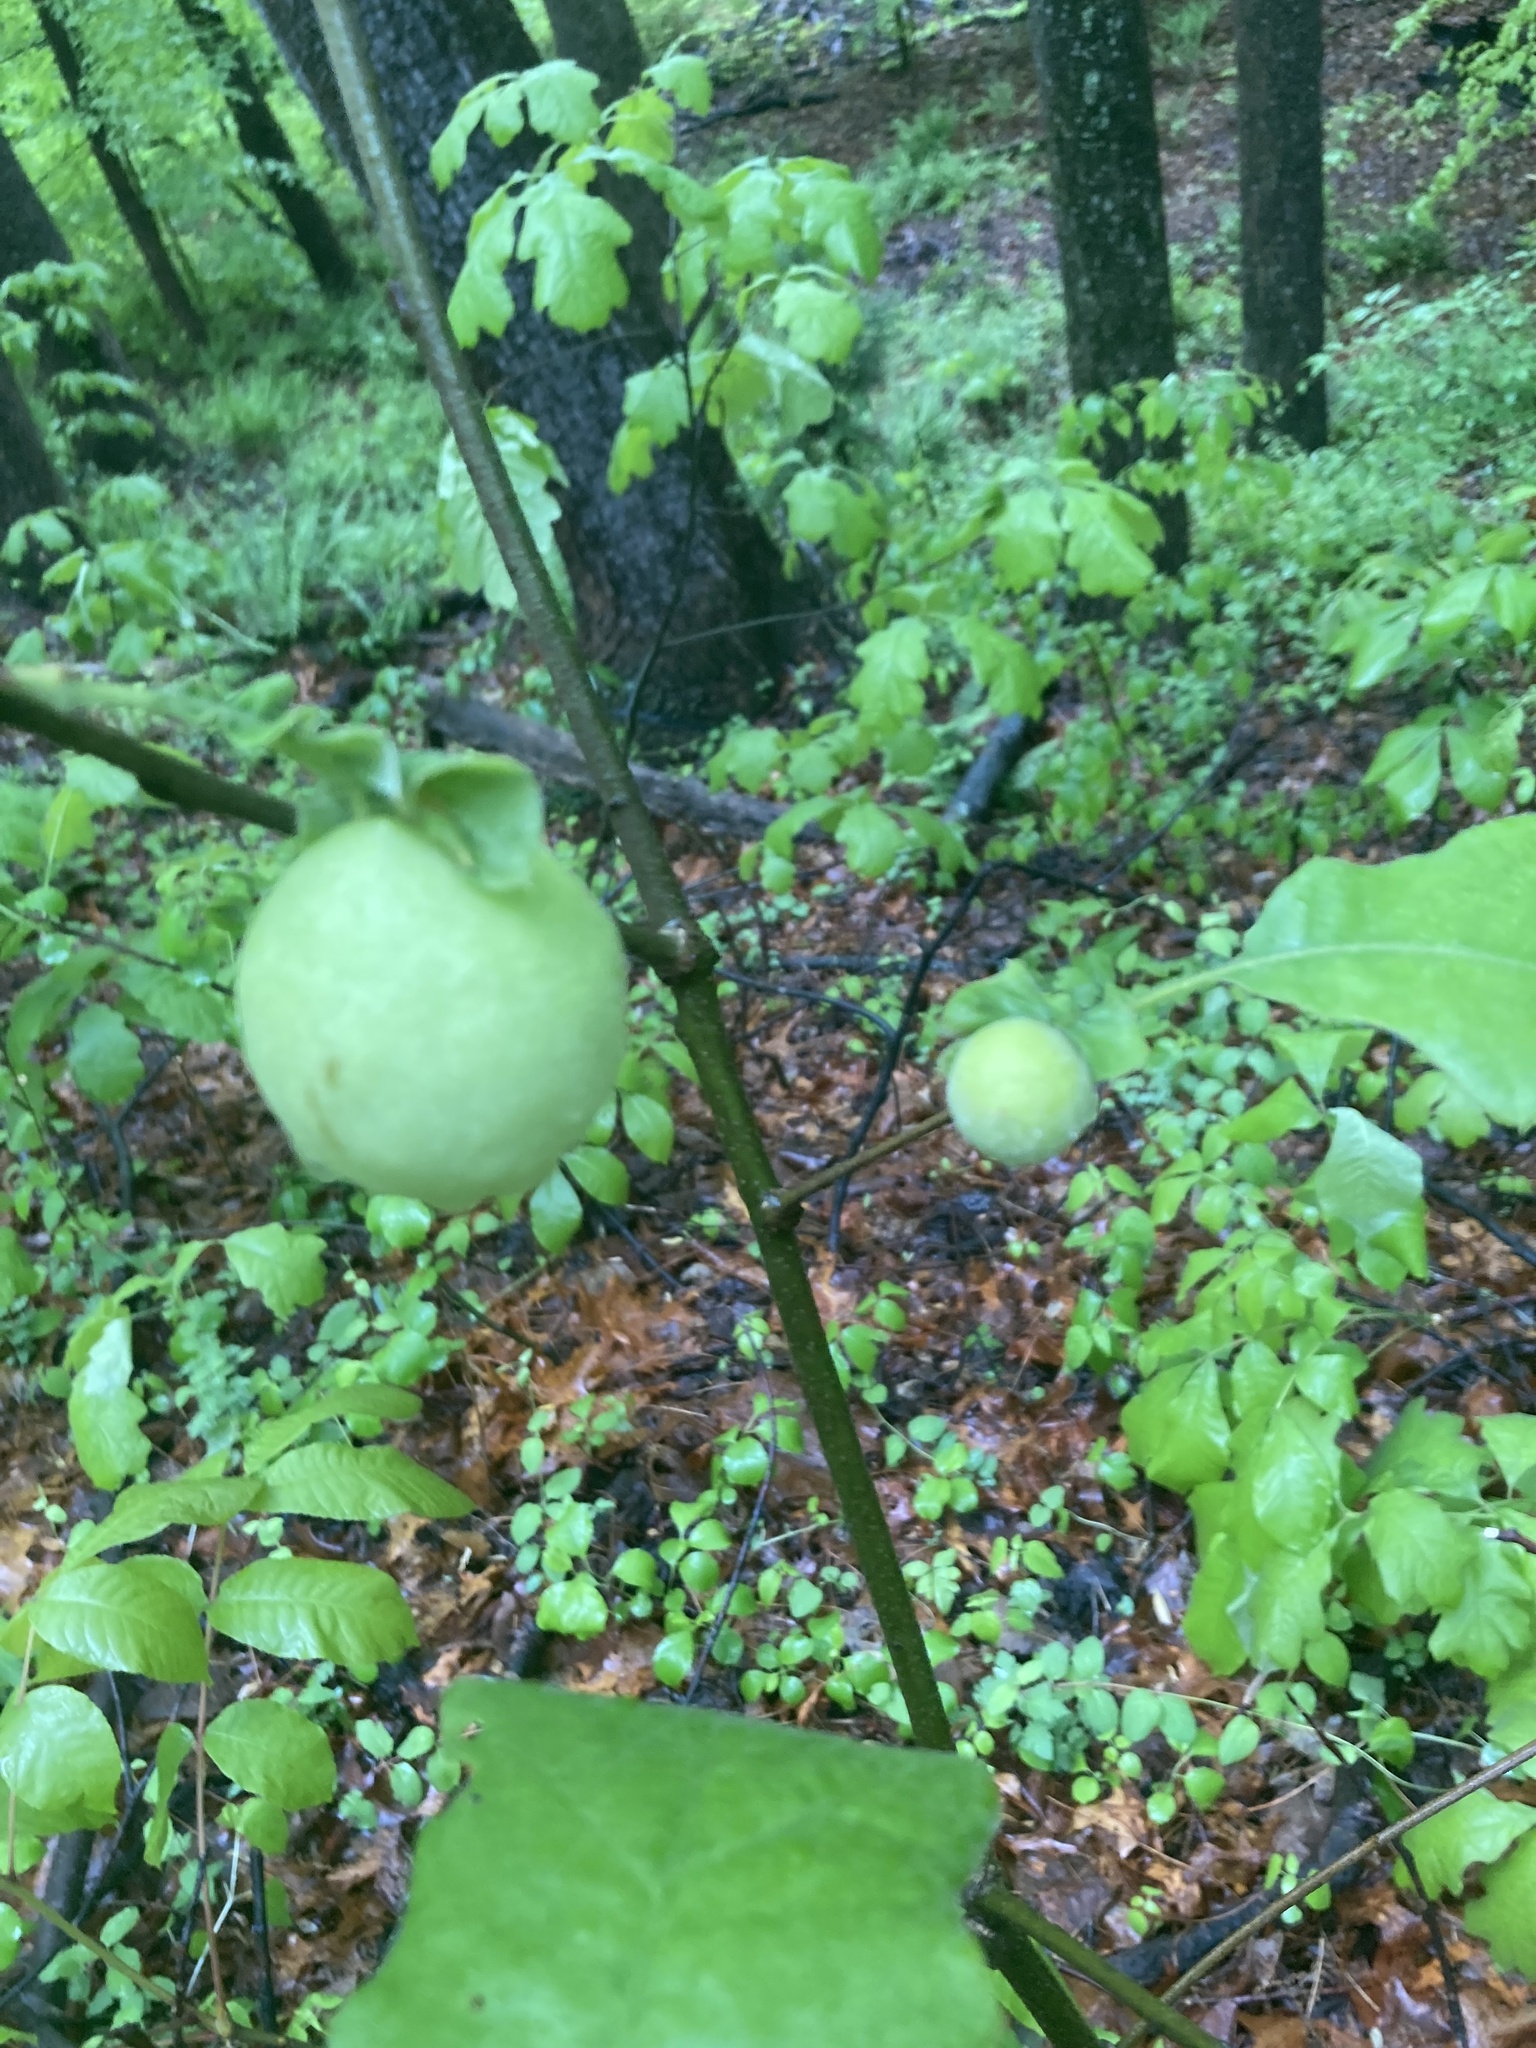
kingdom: Animalia
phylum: Arthropoda
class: Insecta
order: Hymenoptera
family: Cynipidae
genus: Amphibolips
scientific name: Amphibolips
